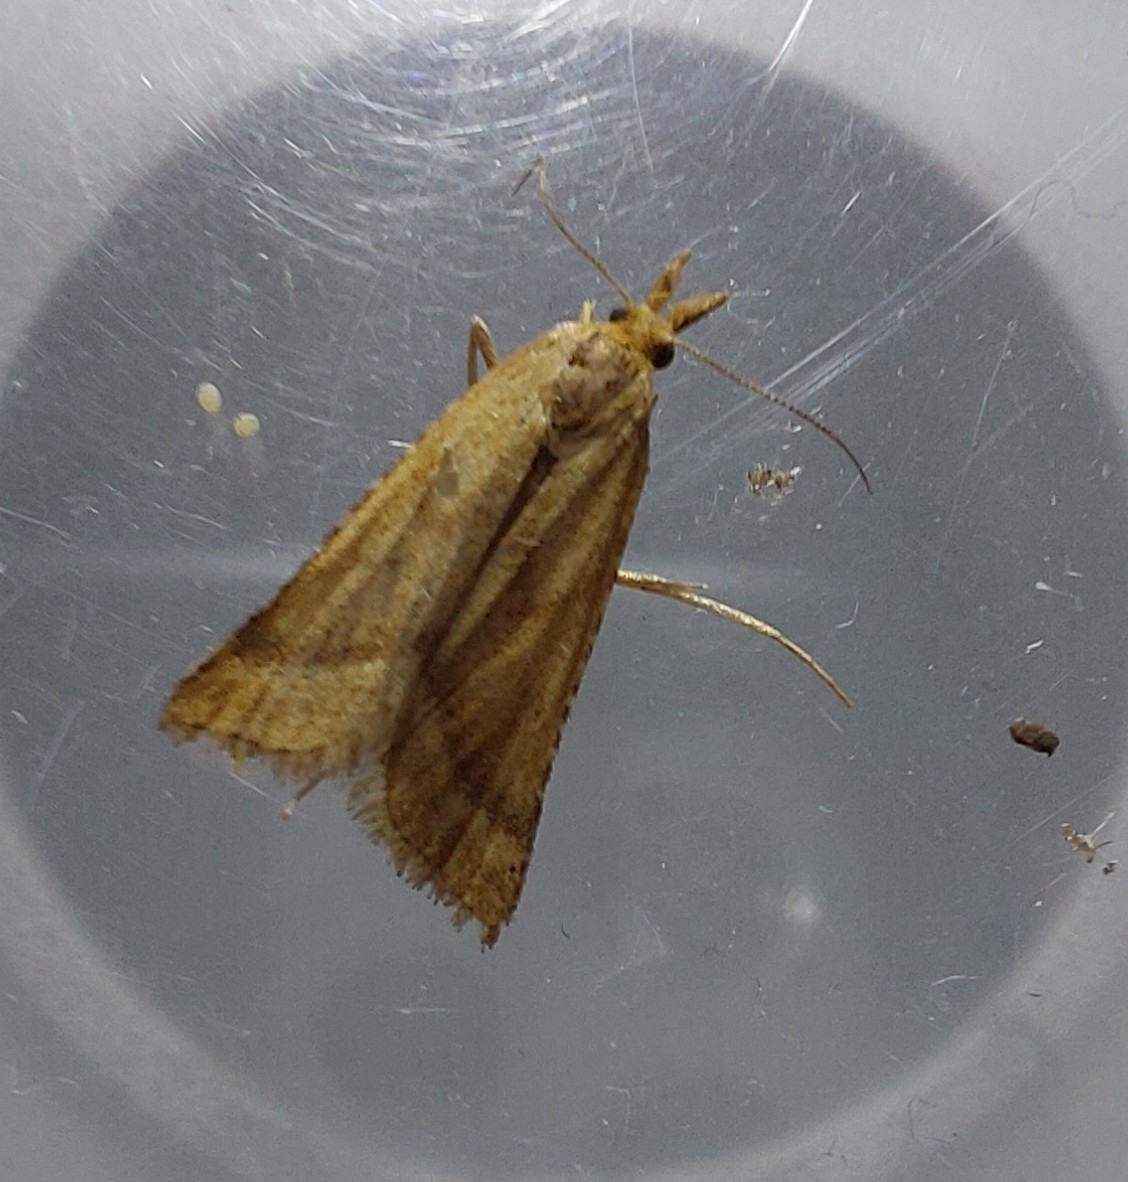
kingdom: Animalia
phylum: Arthropoda
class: Insecta
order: Lepidoptera
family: Pyralidae
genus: Synaphe
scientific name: Synaphe punctalis
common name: Long-legged tabby
